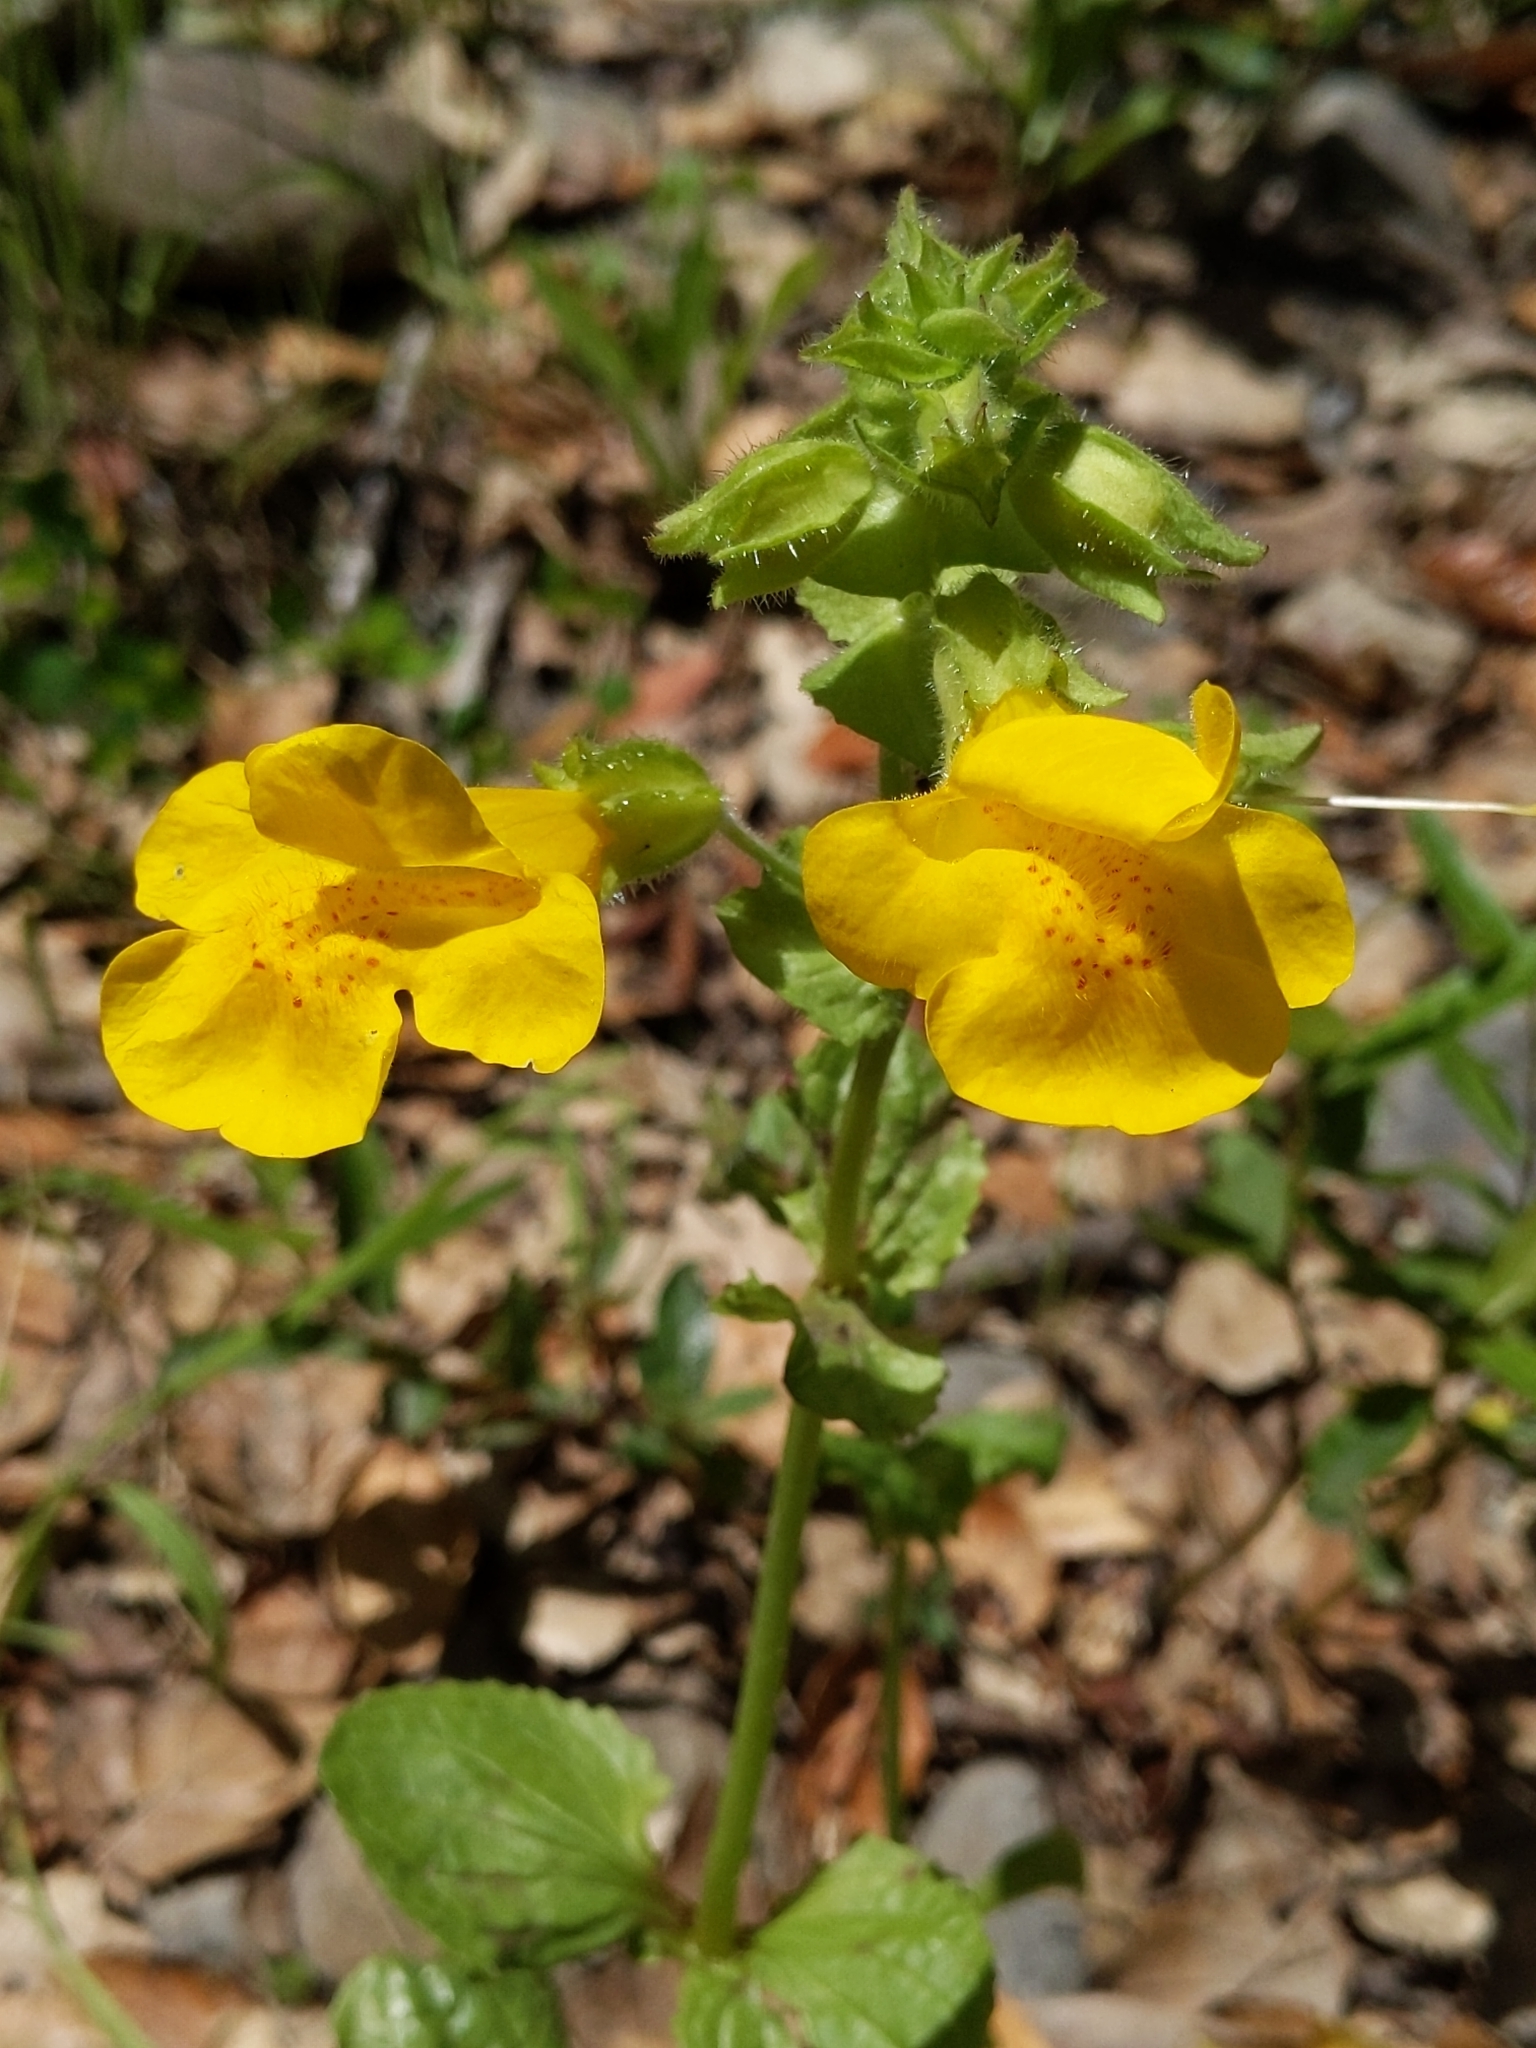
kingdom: Plantae
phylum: Tracheophyta
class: Magnoliopsida
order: Lamiales
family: Phrymaceae
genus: Erythranthe
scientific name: Erythranthe guttata
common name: Monkeyflower
